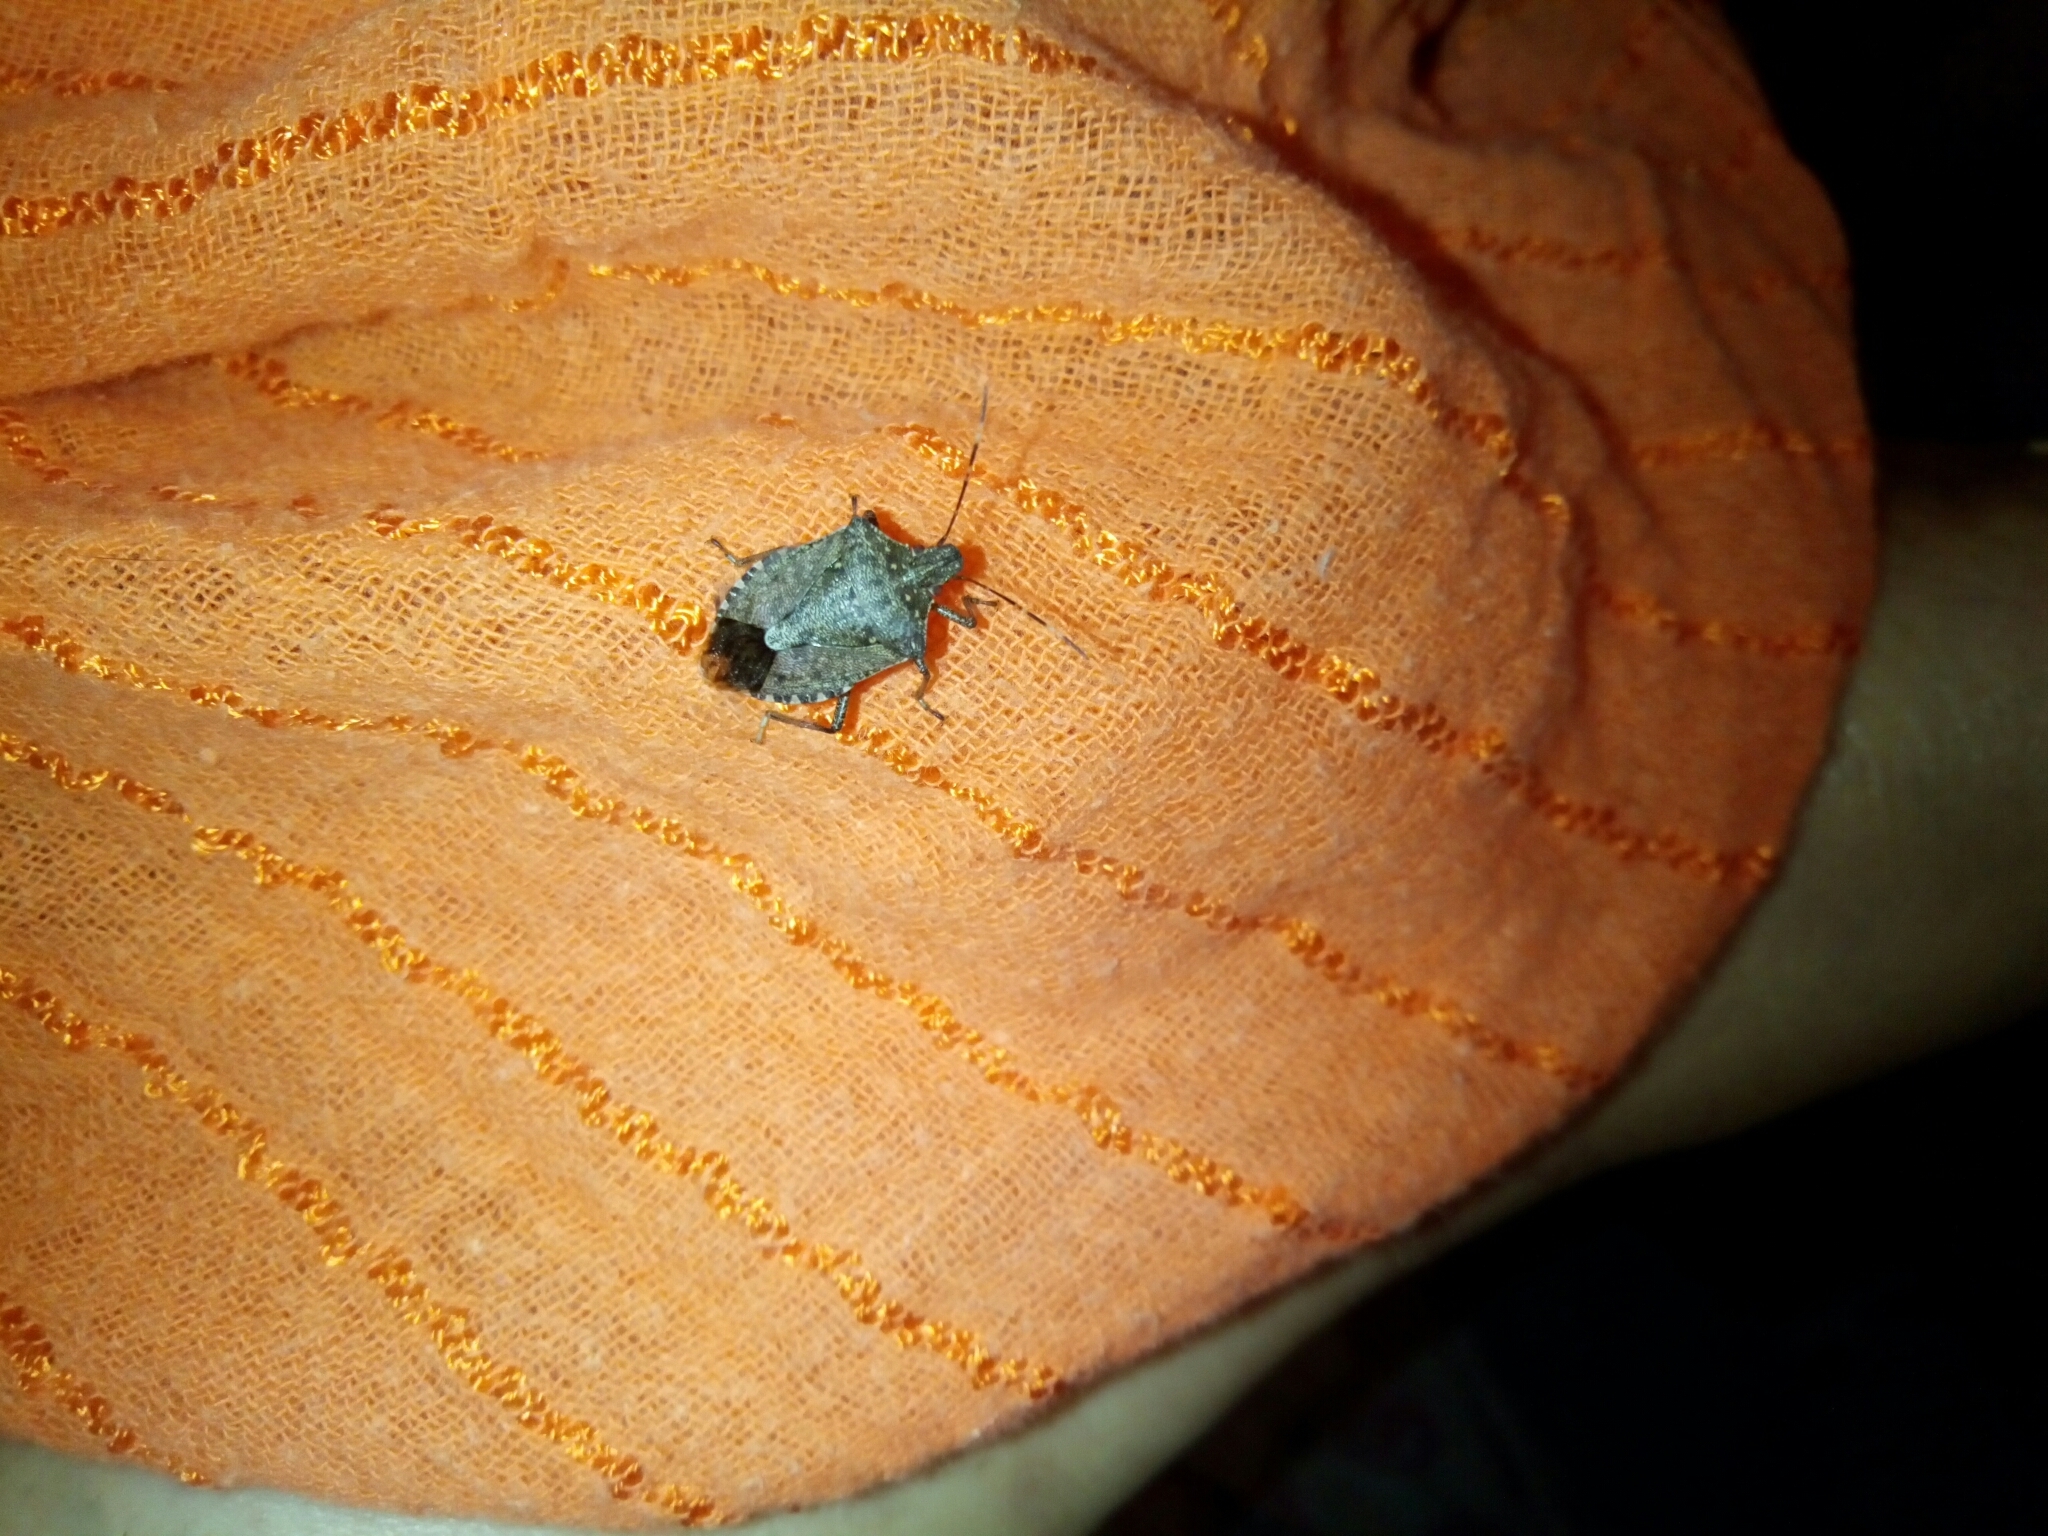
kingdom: Animalia
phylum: Arthropoda
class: Insecta
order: Hemiptera
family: Pentatomidae
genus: Halyomorpha
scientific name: Halyomorpha halys
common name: Brown marmorated stink bug
